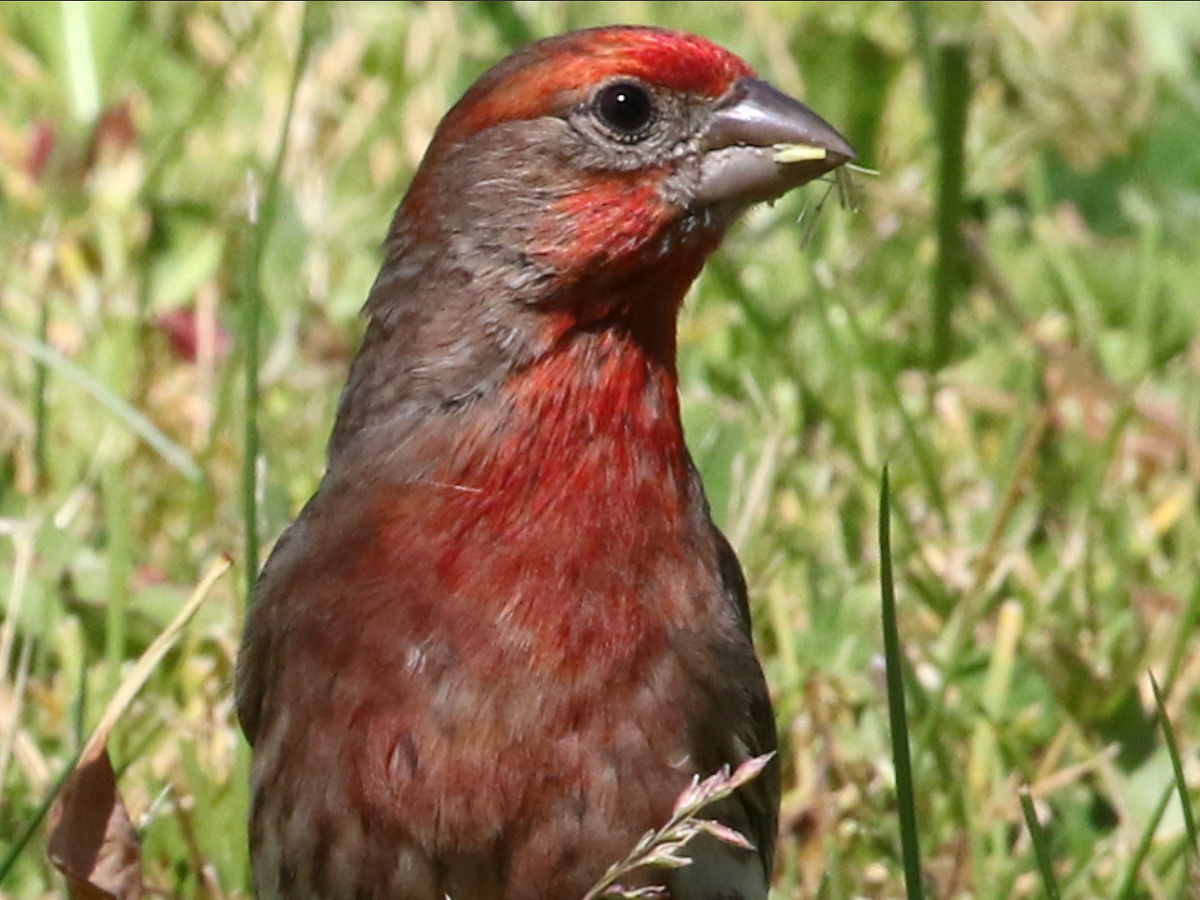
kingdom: Animalia
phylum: Chordata
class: Aves
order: Passeriformes
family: Fringillidae
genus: Haemorhous
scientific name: Haemorhous mexicanus
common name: House finch
